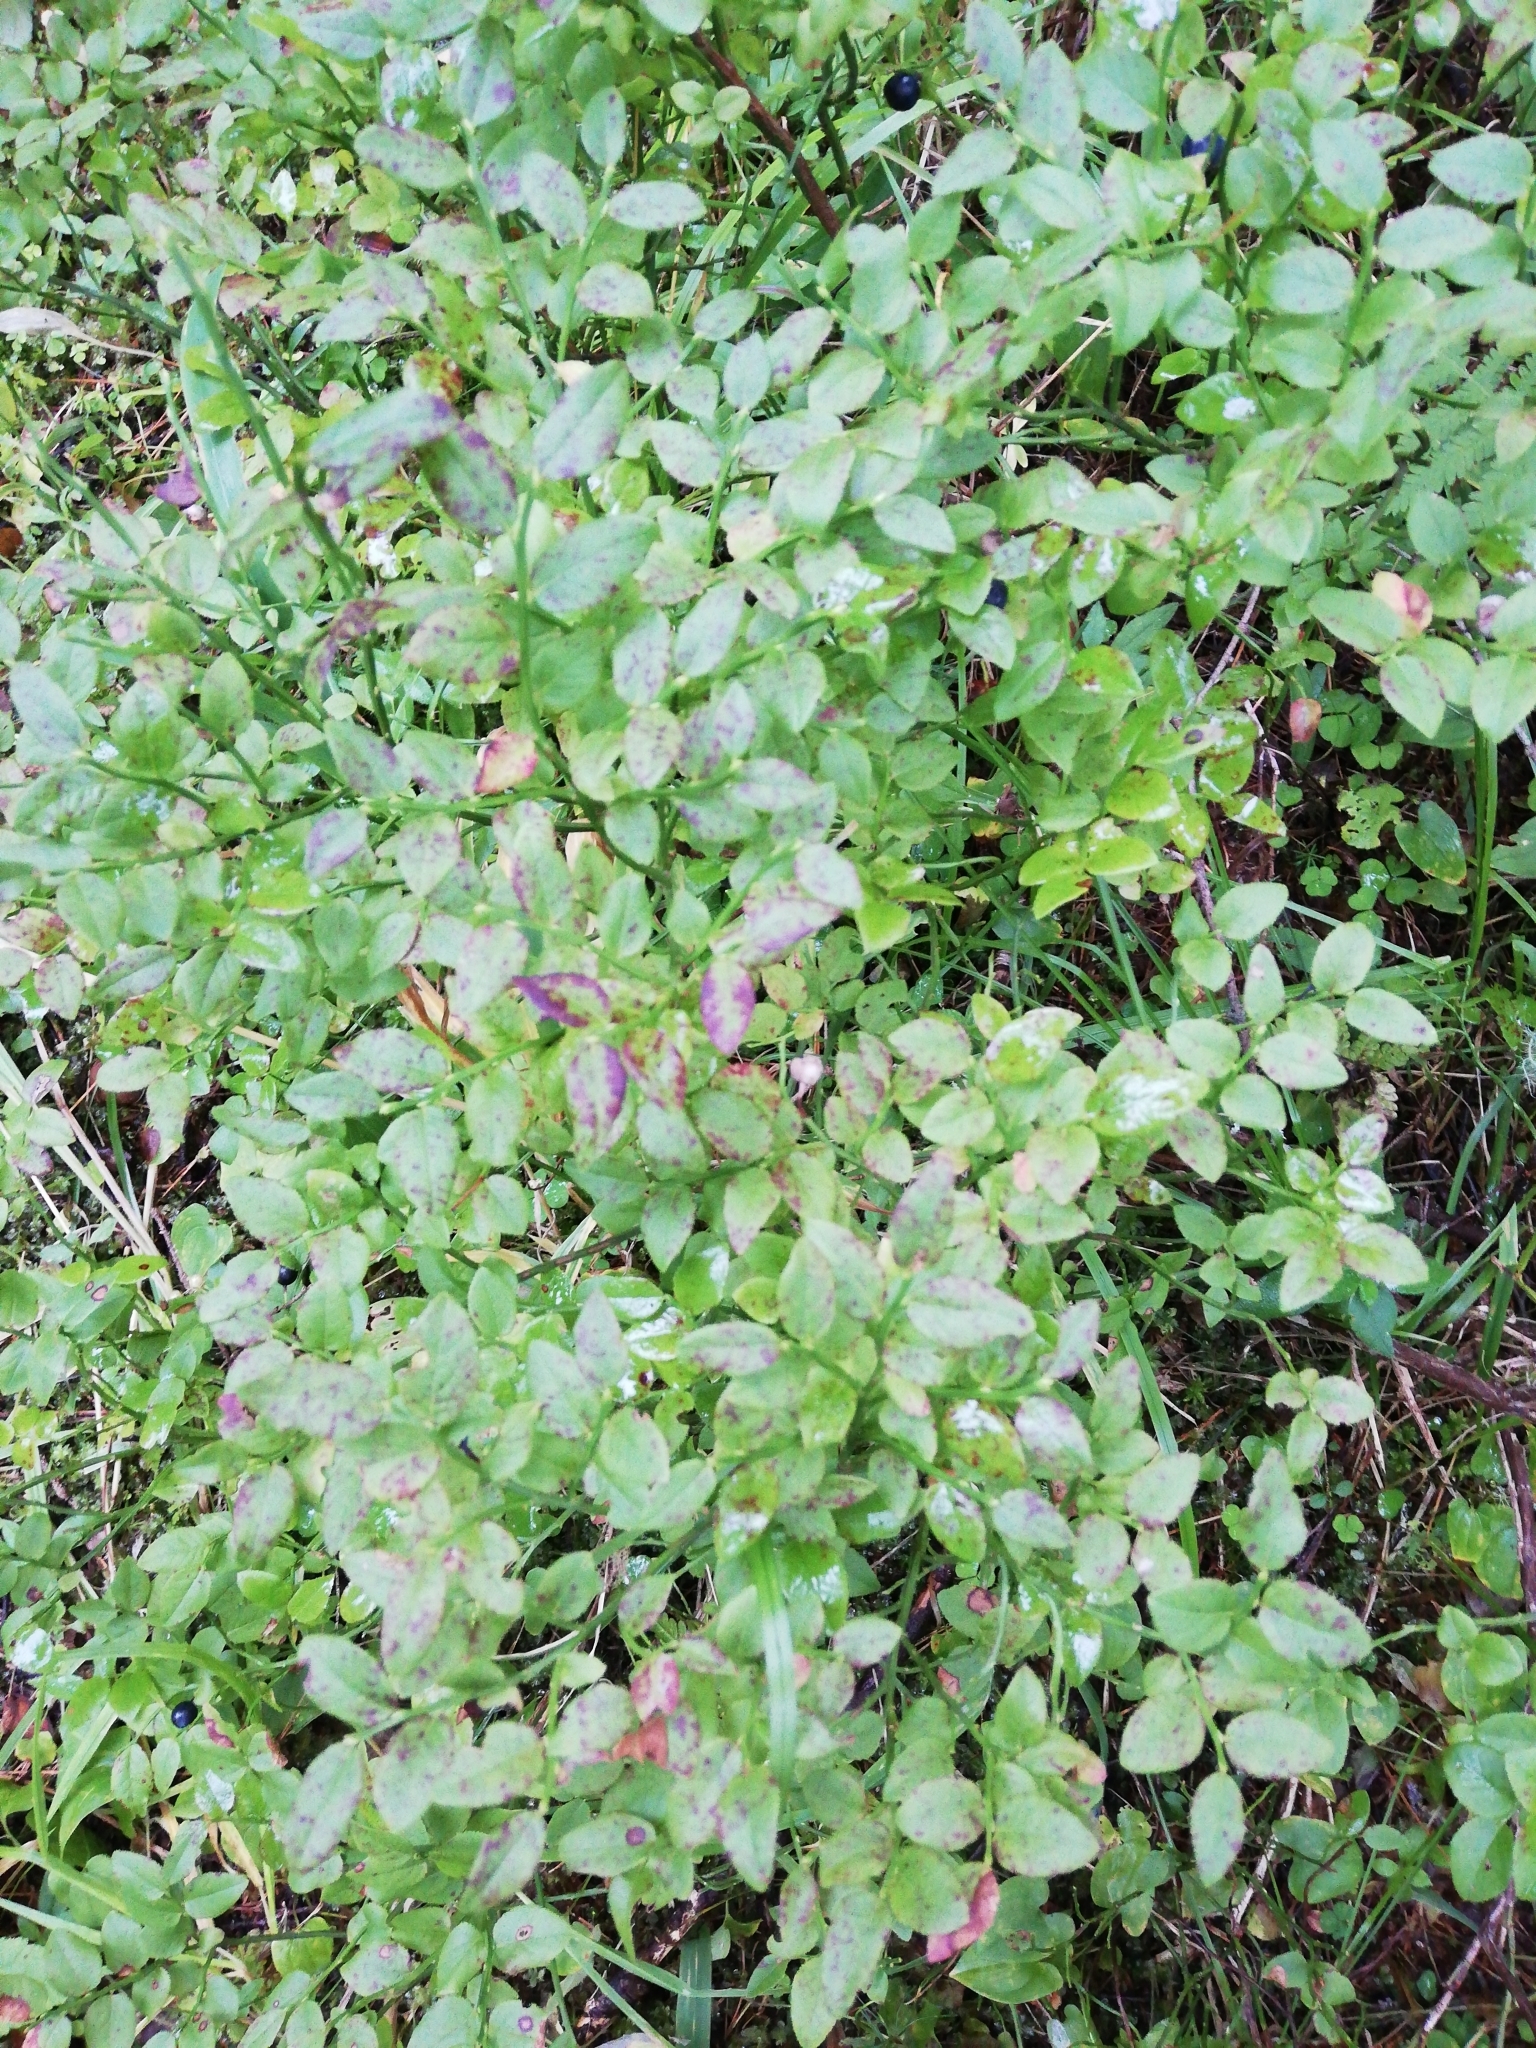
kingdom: Plantae
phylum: Tracheophyta
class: Magnoliopsida
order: Ericales
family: Ericaceae
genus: Vaccinium
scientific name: Vaccinium myrtillus
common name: Bilberry
